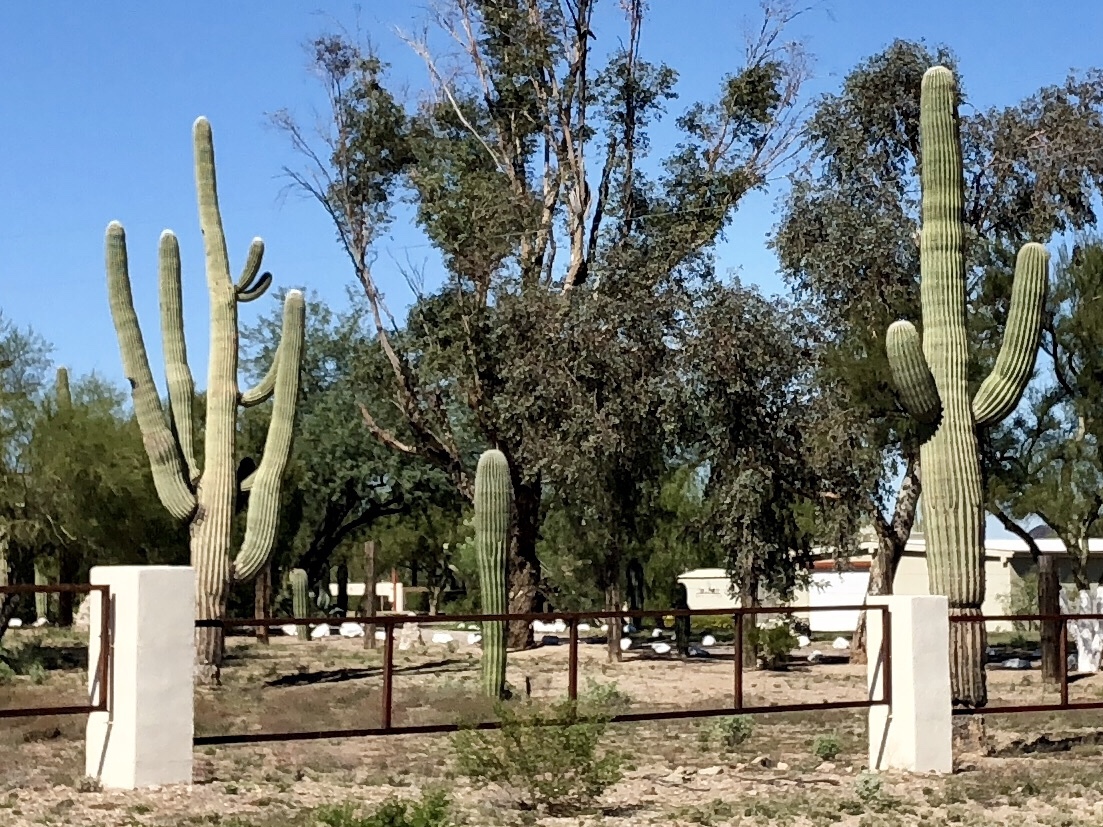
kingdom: Plantae
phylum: Tracheophyta
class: Magnoliopsida
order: Caryophyllales
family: Cactaceae
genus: Carnegiea
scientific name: Carnegiea gigantea
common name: Saguaro
